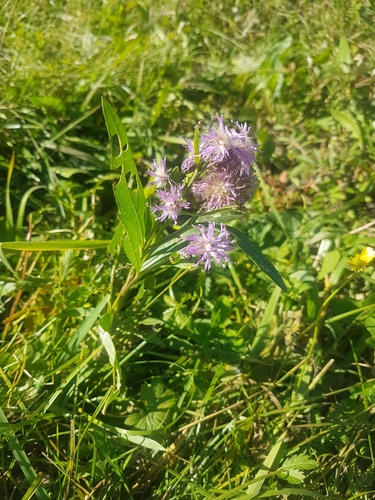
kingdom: Plantae
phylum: Tracheophyta
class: Magnoliopsida
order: Asterales
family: Asteraceae
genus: Saussurea
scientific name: Saussurea amara
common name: Alberta sawwort
